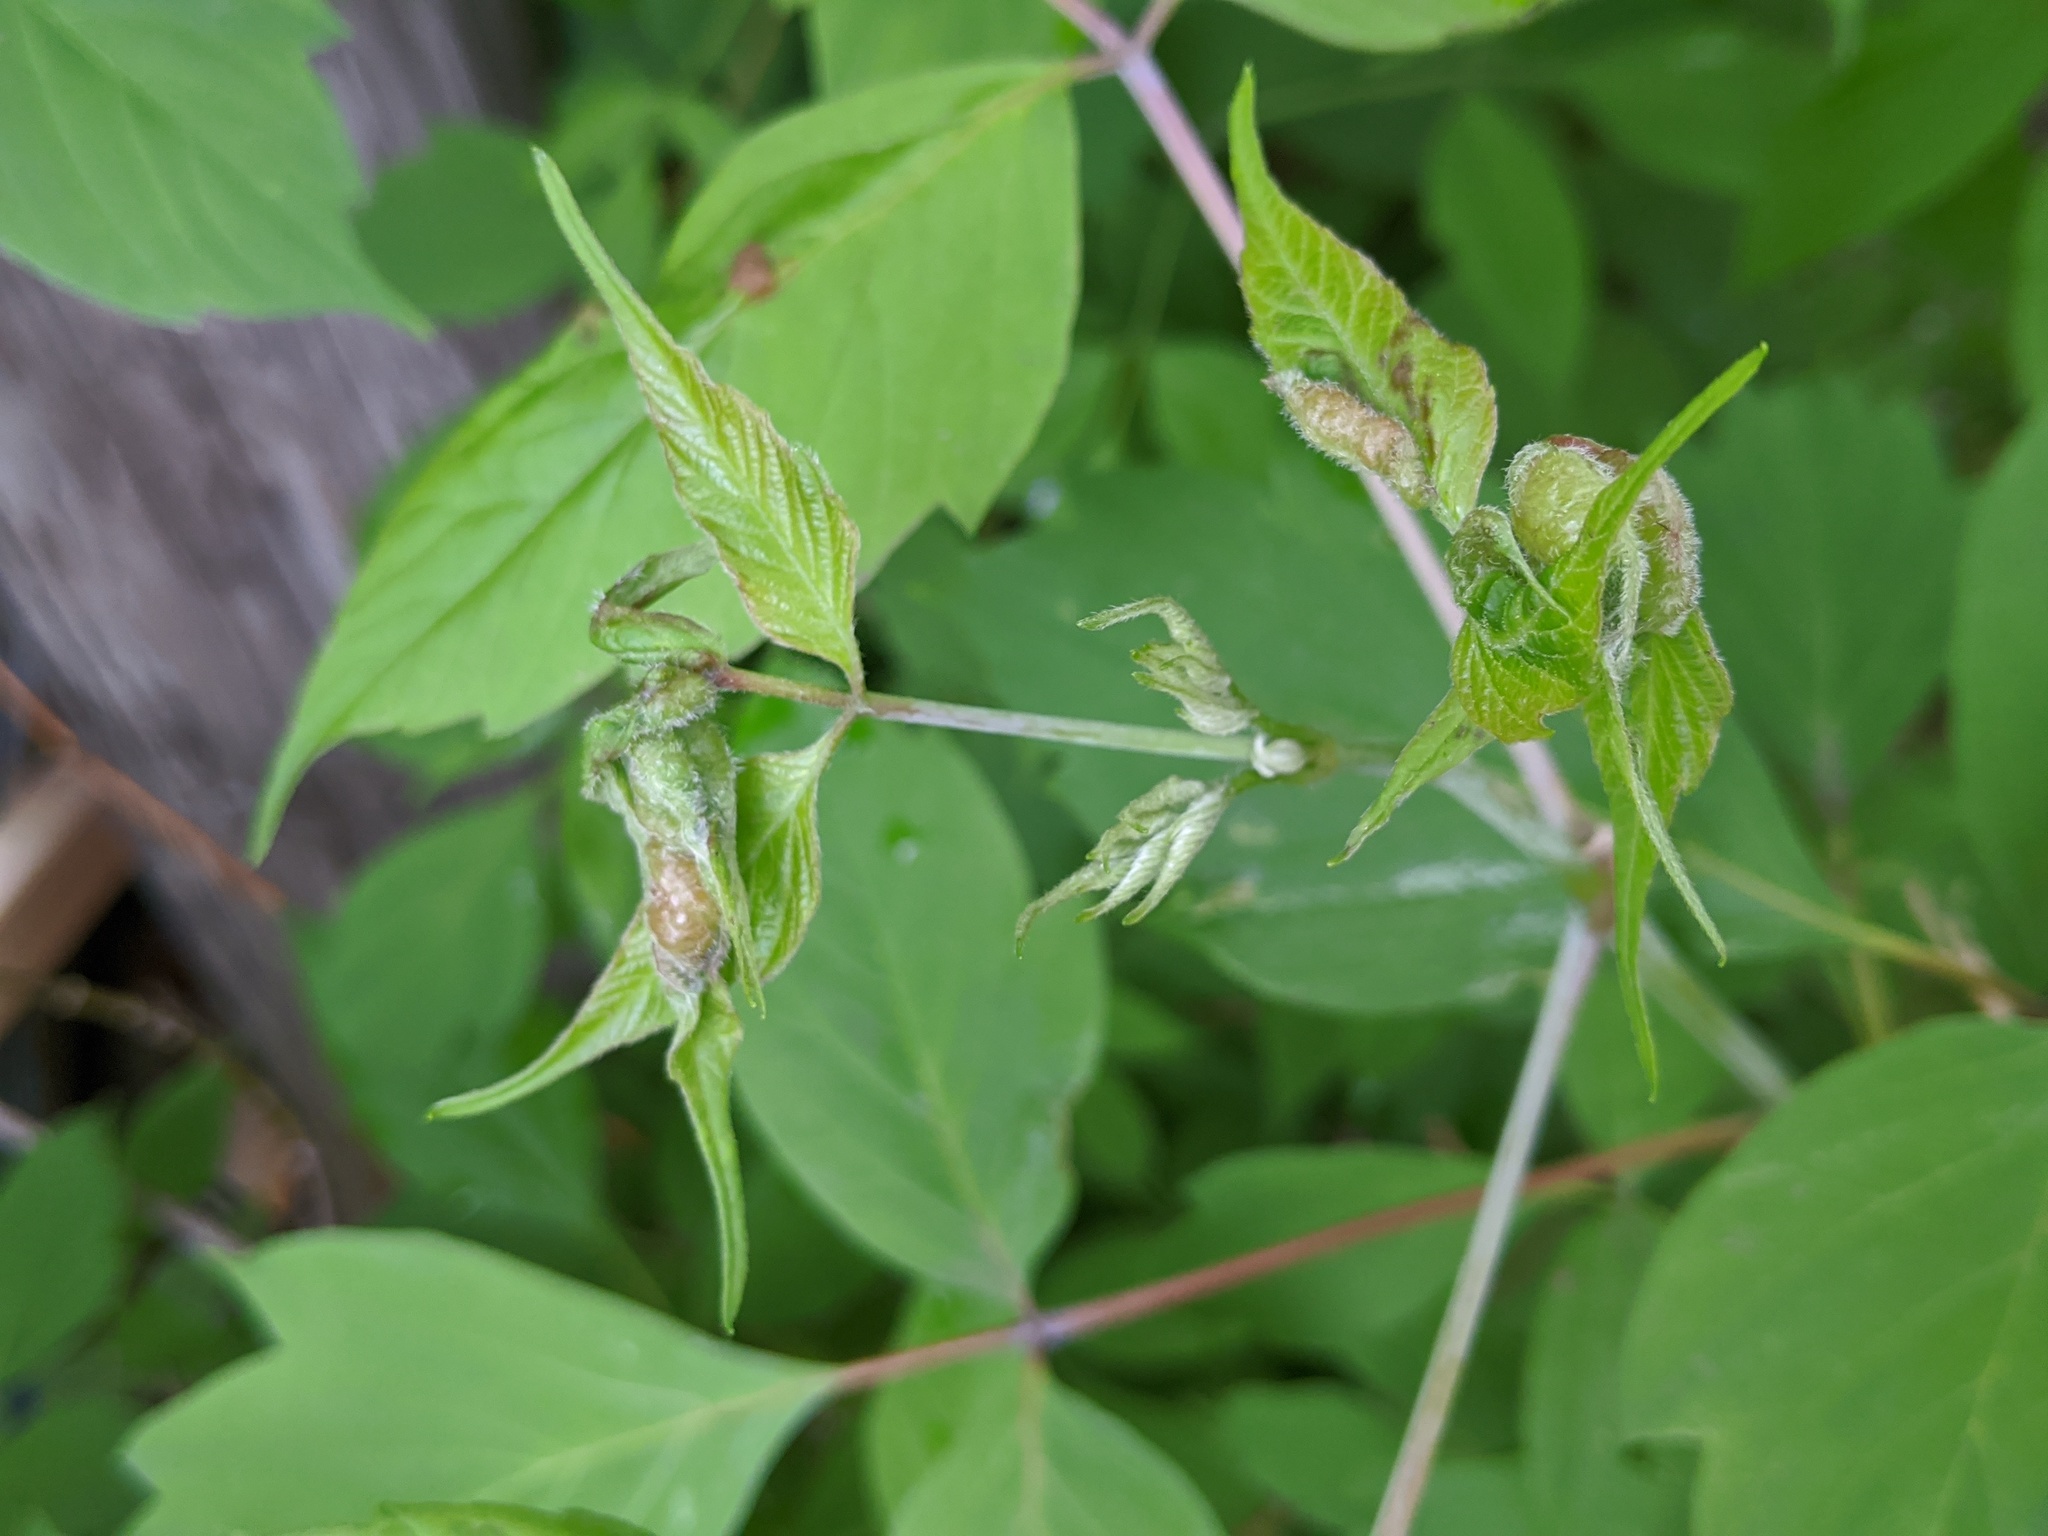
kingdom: Animalia
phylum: Arthropoda
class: Insecta
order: Diptera
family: Cecidomyiidae
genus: Contarinia
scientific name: Contarinia negundinis
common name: Boxelder budgall midge
